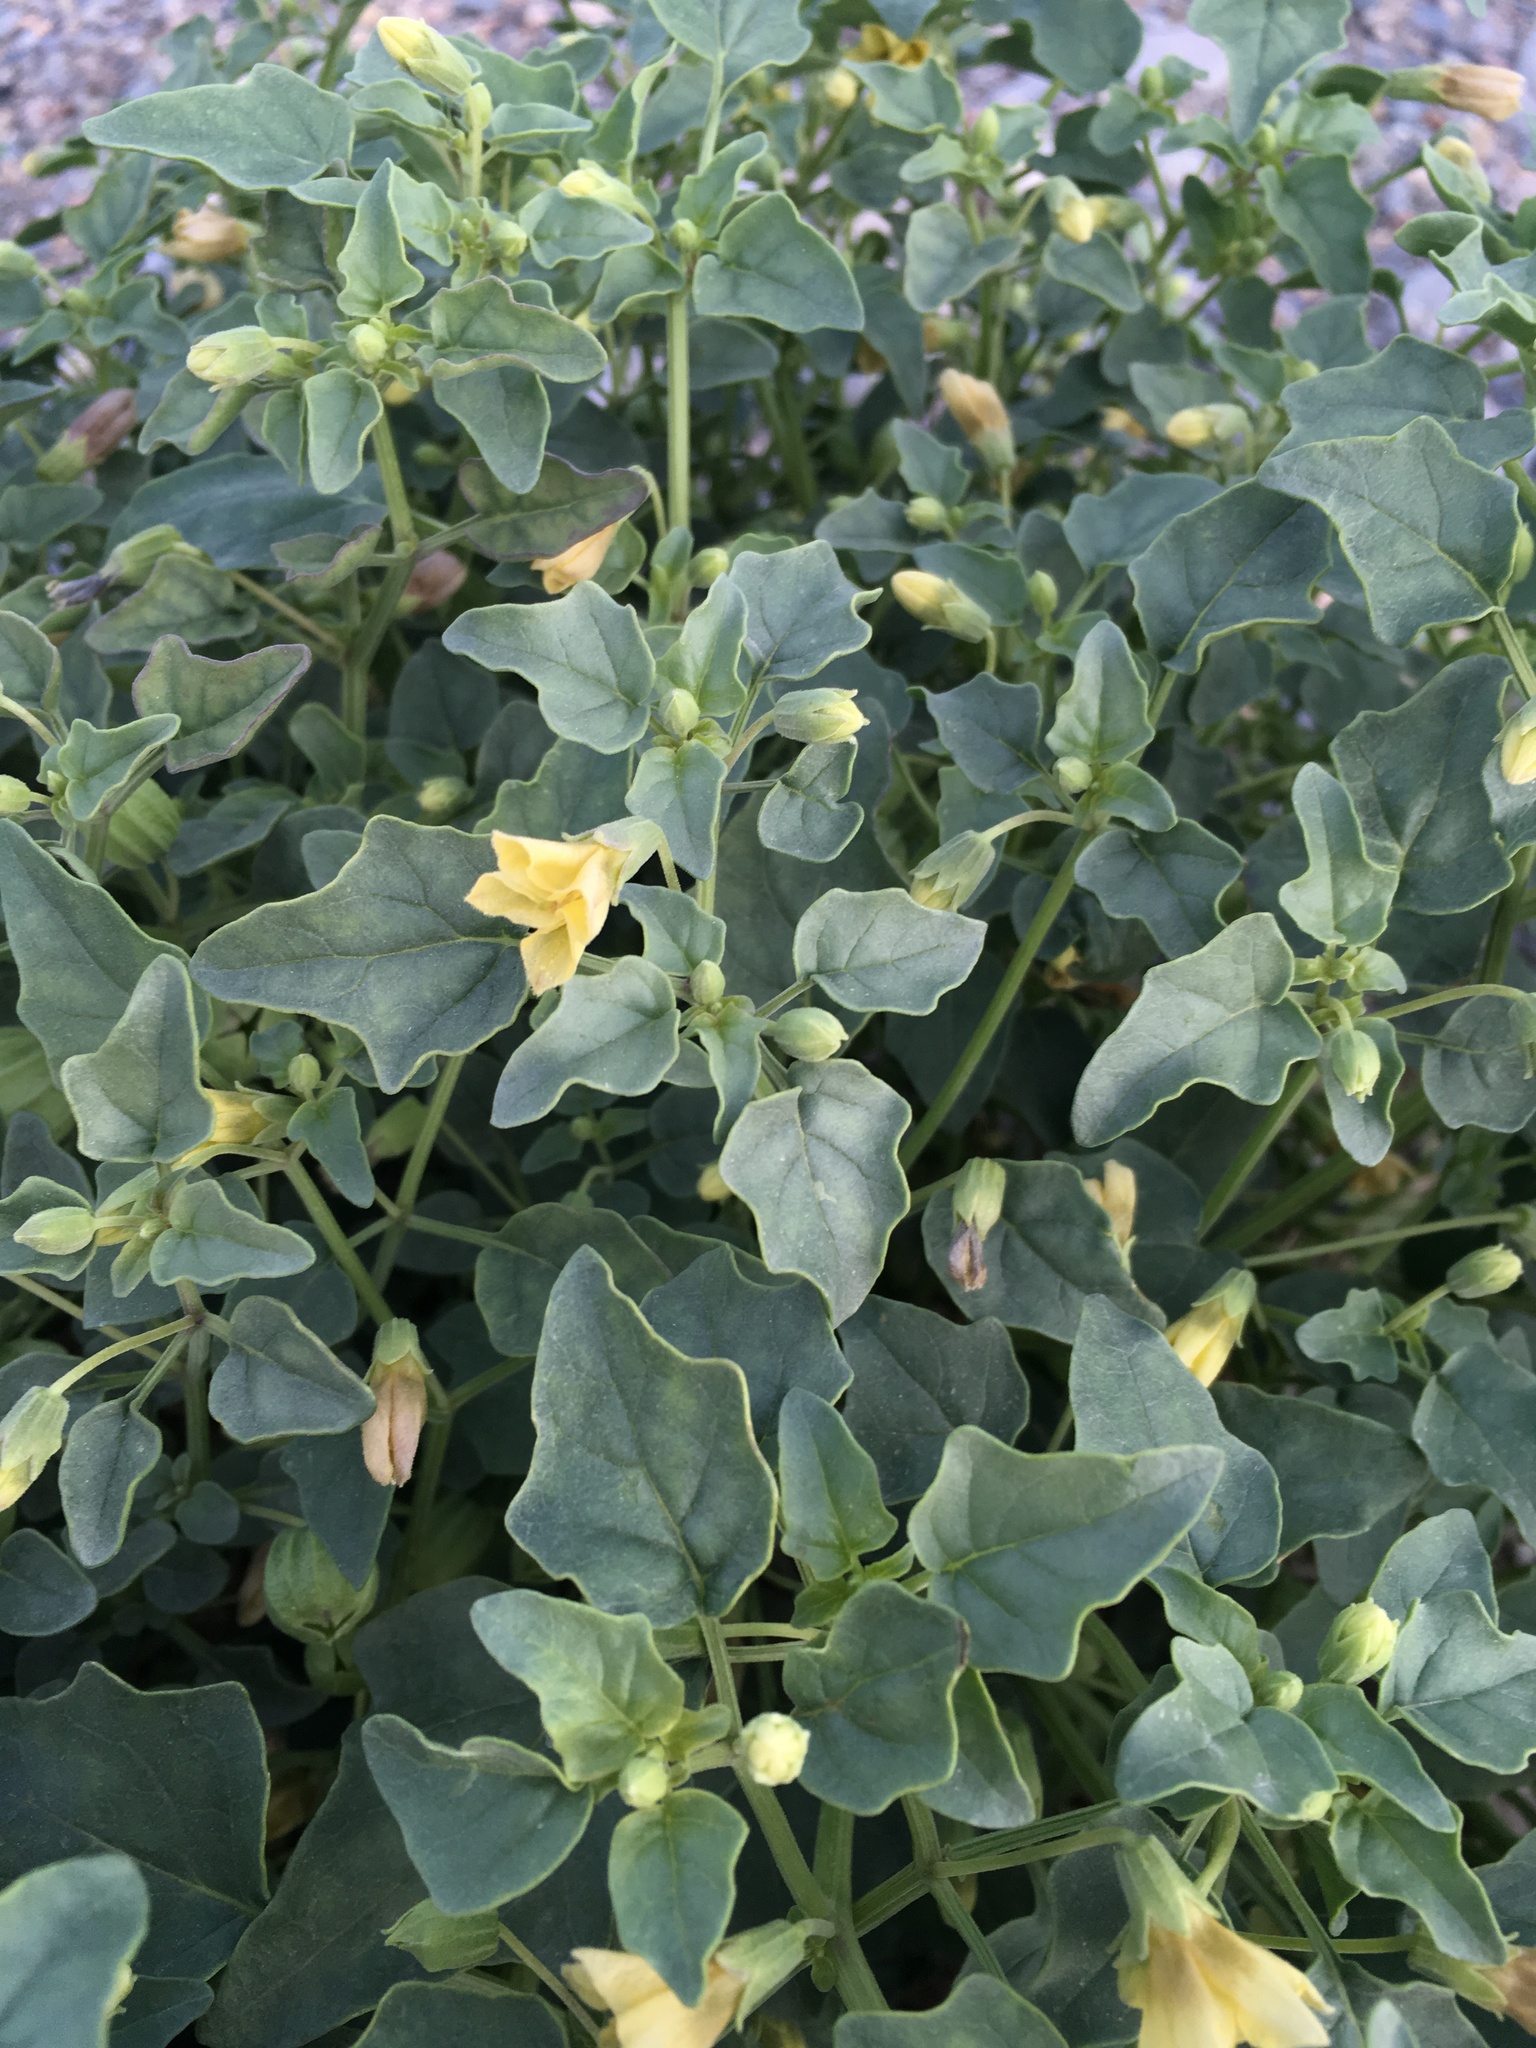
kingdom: Plantae
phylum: Tracheophyta
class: Magnoliopsida
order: Solanales
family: Solanaceae
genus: Physalis
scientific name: Physalis crassifolia
